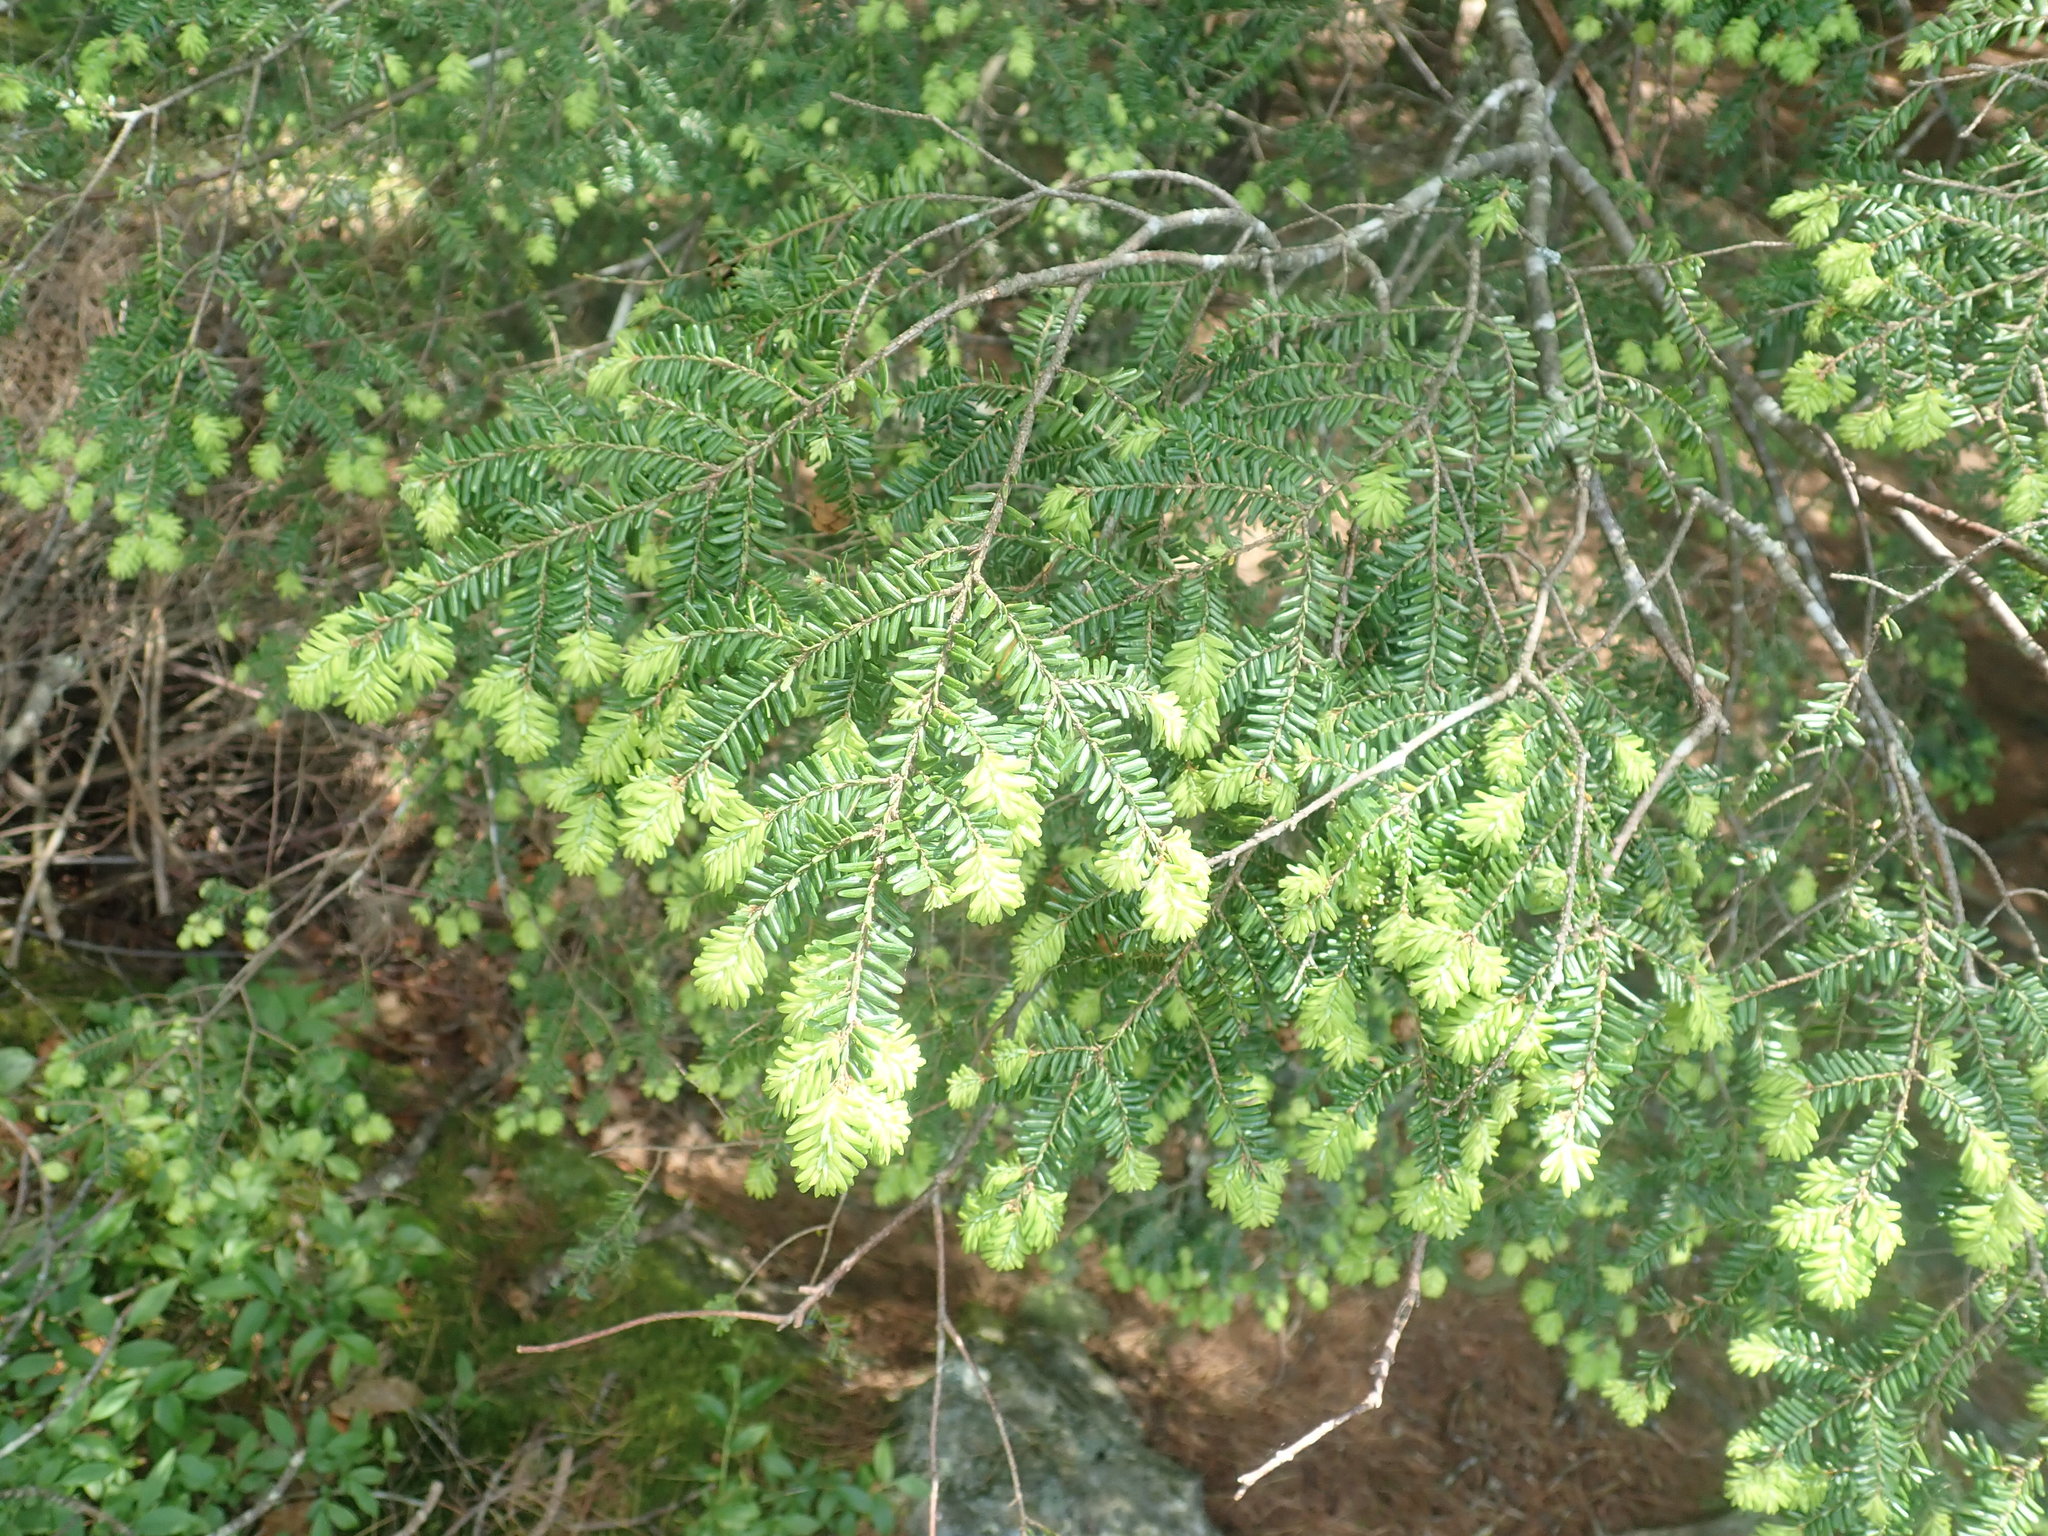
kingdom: Plantae
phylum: Tracheophyta
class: Pinopsida
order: Pinales
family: Pinaceae
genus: Tsuga
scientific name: Tsuga canadensis
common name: Eastern hemlock
